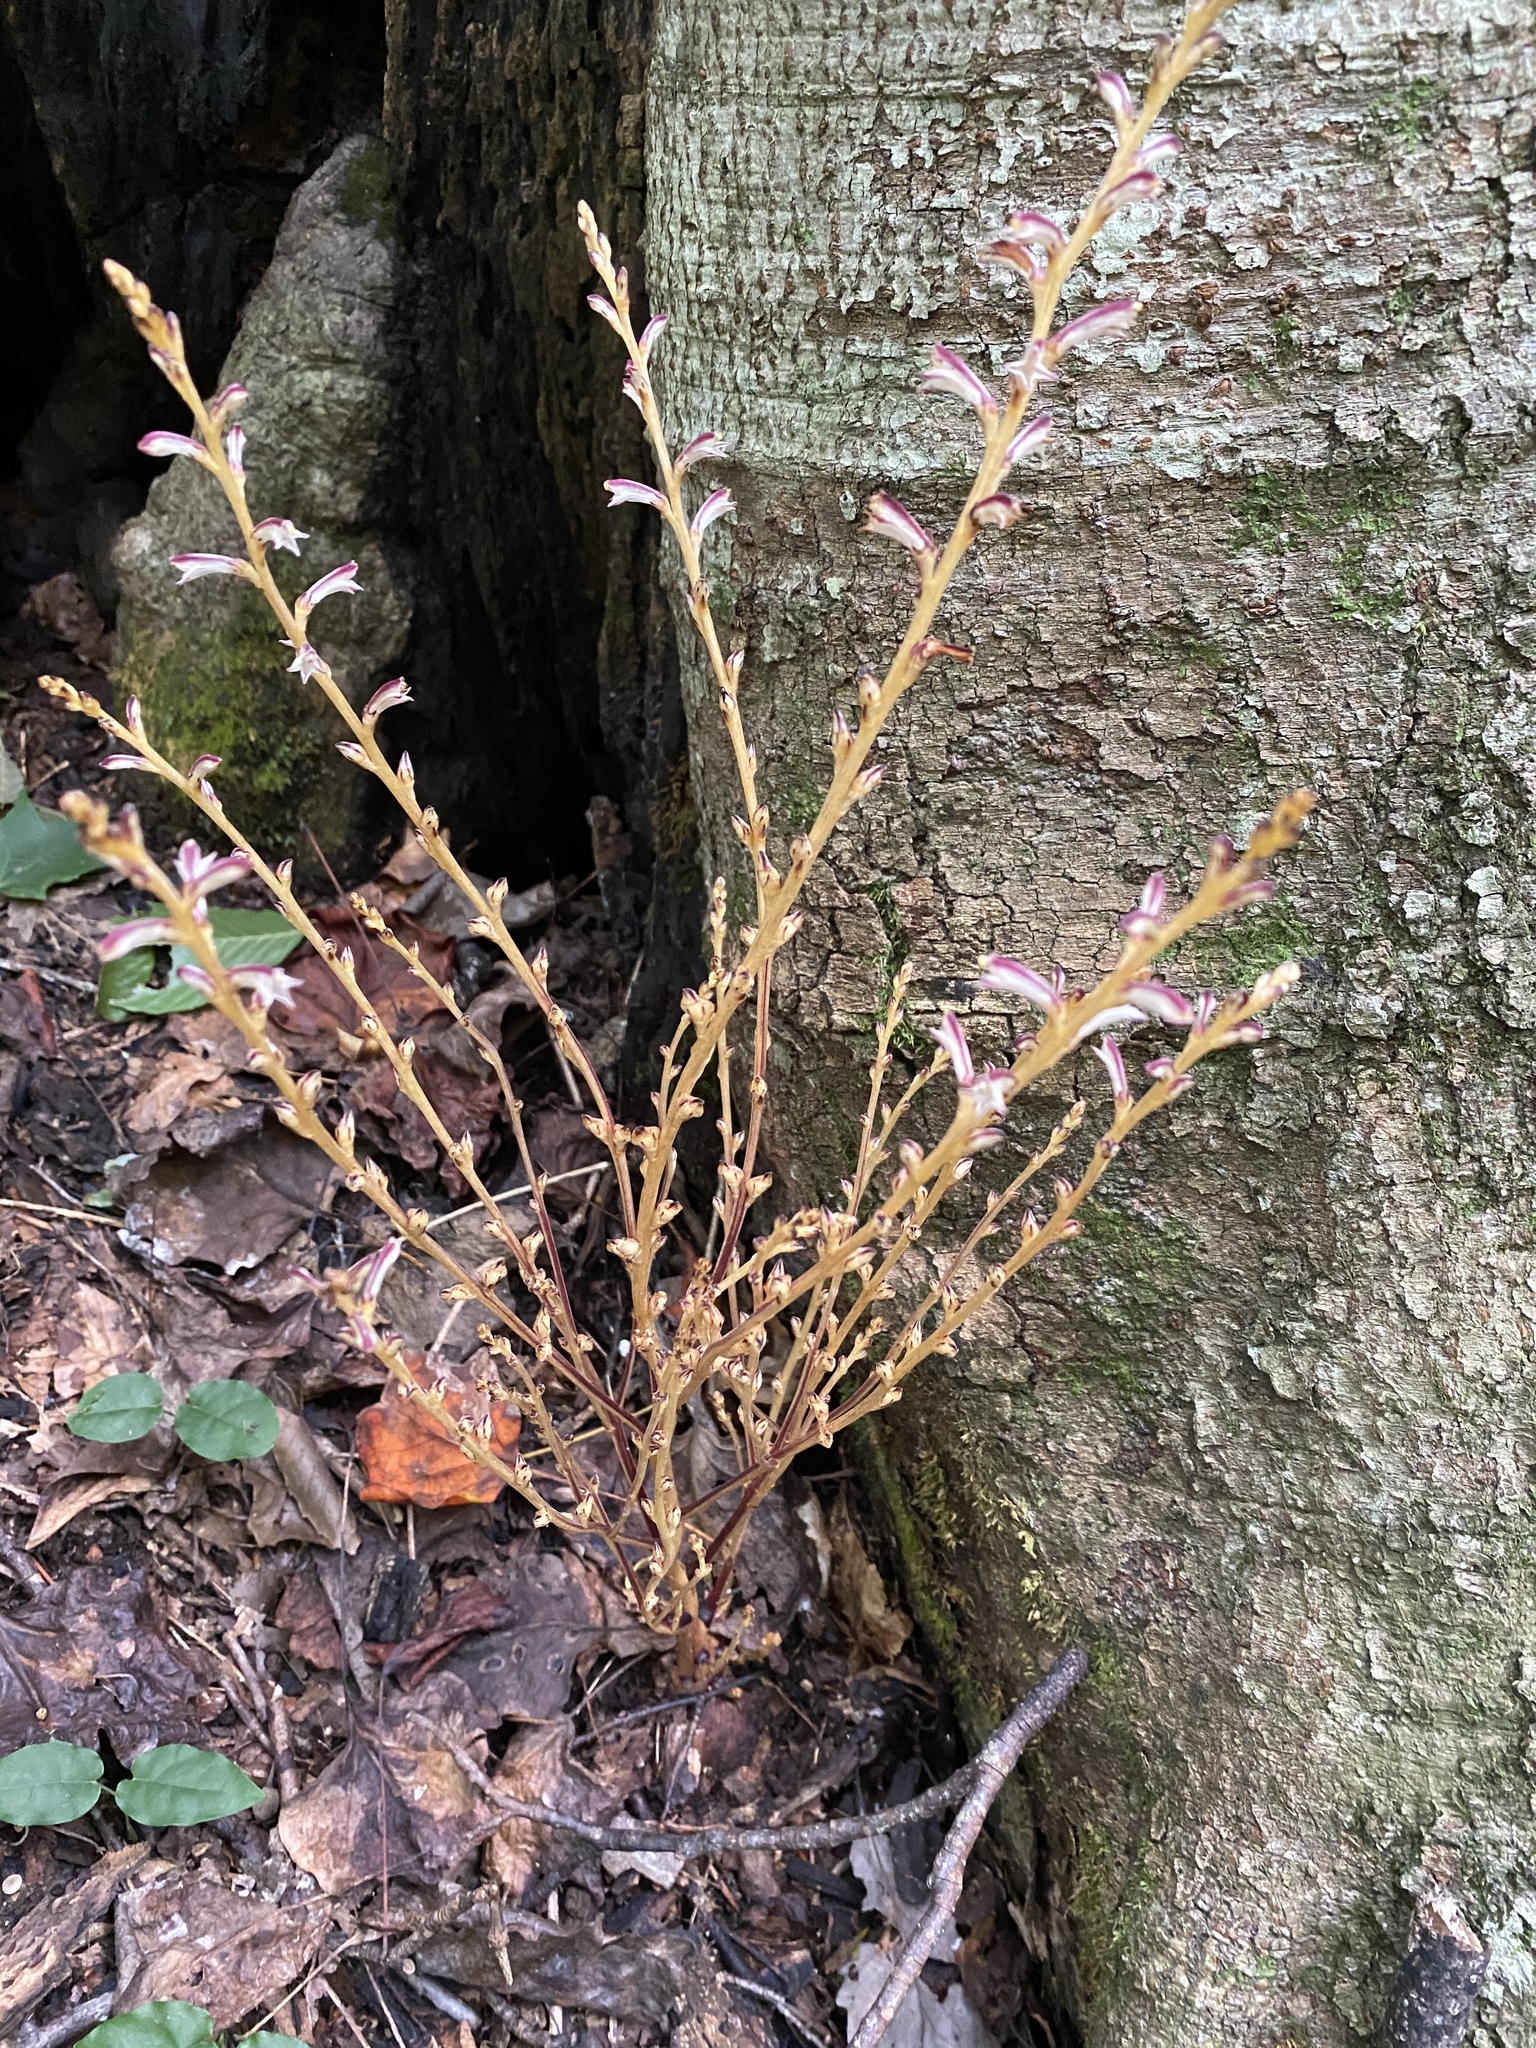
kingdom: Plantae
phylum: Tracheophyta
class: Magnoliopsida
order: Lamiales
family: Orobanchaceae
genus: Epifagus
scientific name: Epifagus virginiana
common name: Beechdrops
